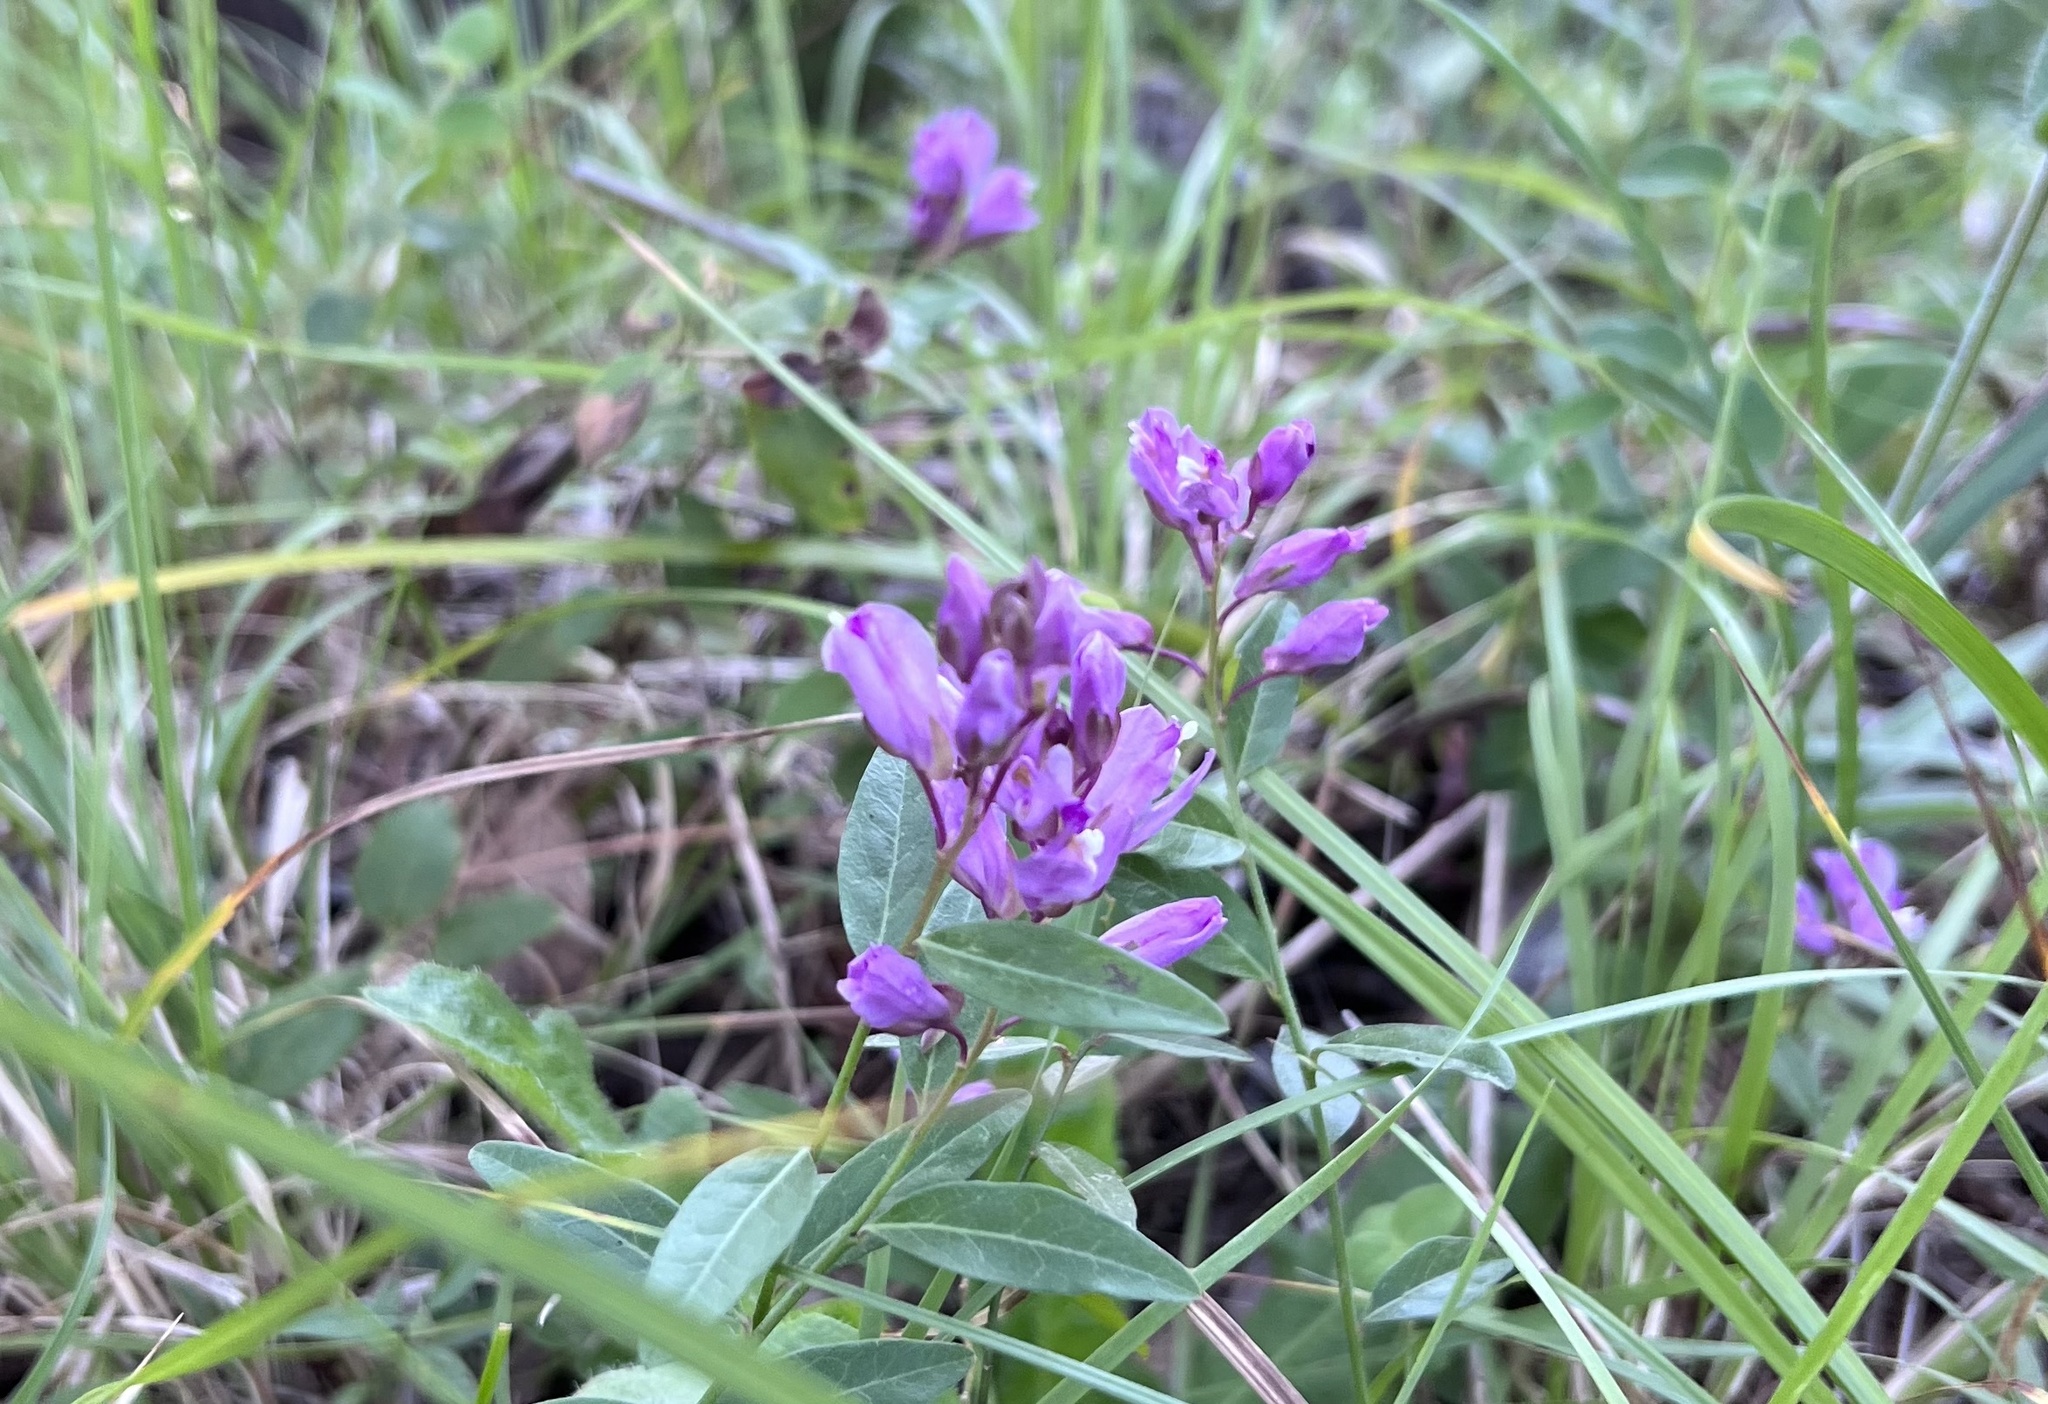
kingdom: Plantae
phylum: Tracheophyta
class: Magnoliopsida
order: Fabales
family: Polygalaceae
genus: Rhinotropis
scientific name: Rhinotropis californica
